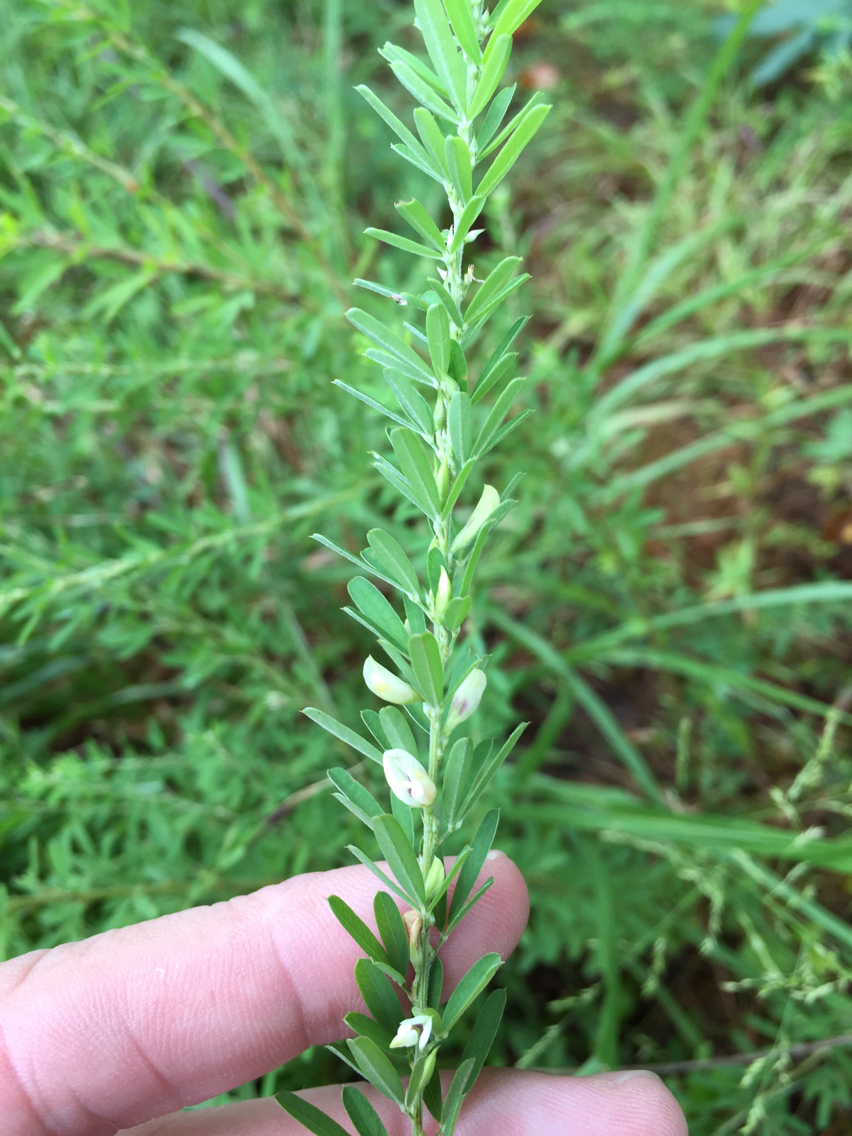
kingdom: Plantae
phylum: Tracheophyta
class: Magnoliopsida
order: Fabales
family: Fabaceae
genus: Lespedeza
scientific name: Lespedeza cuneata
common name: Chinese bush-clover
